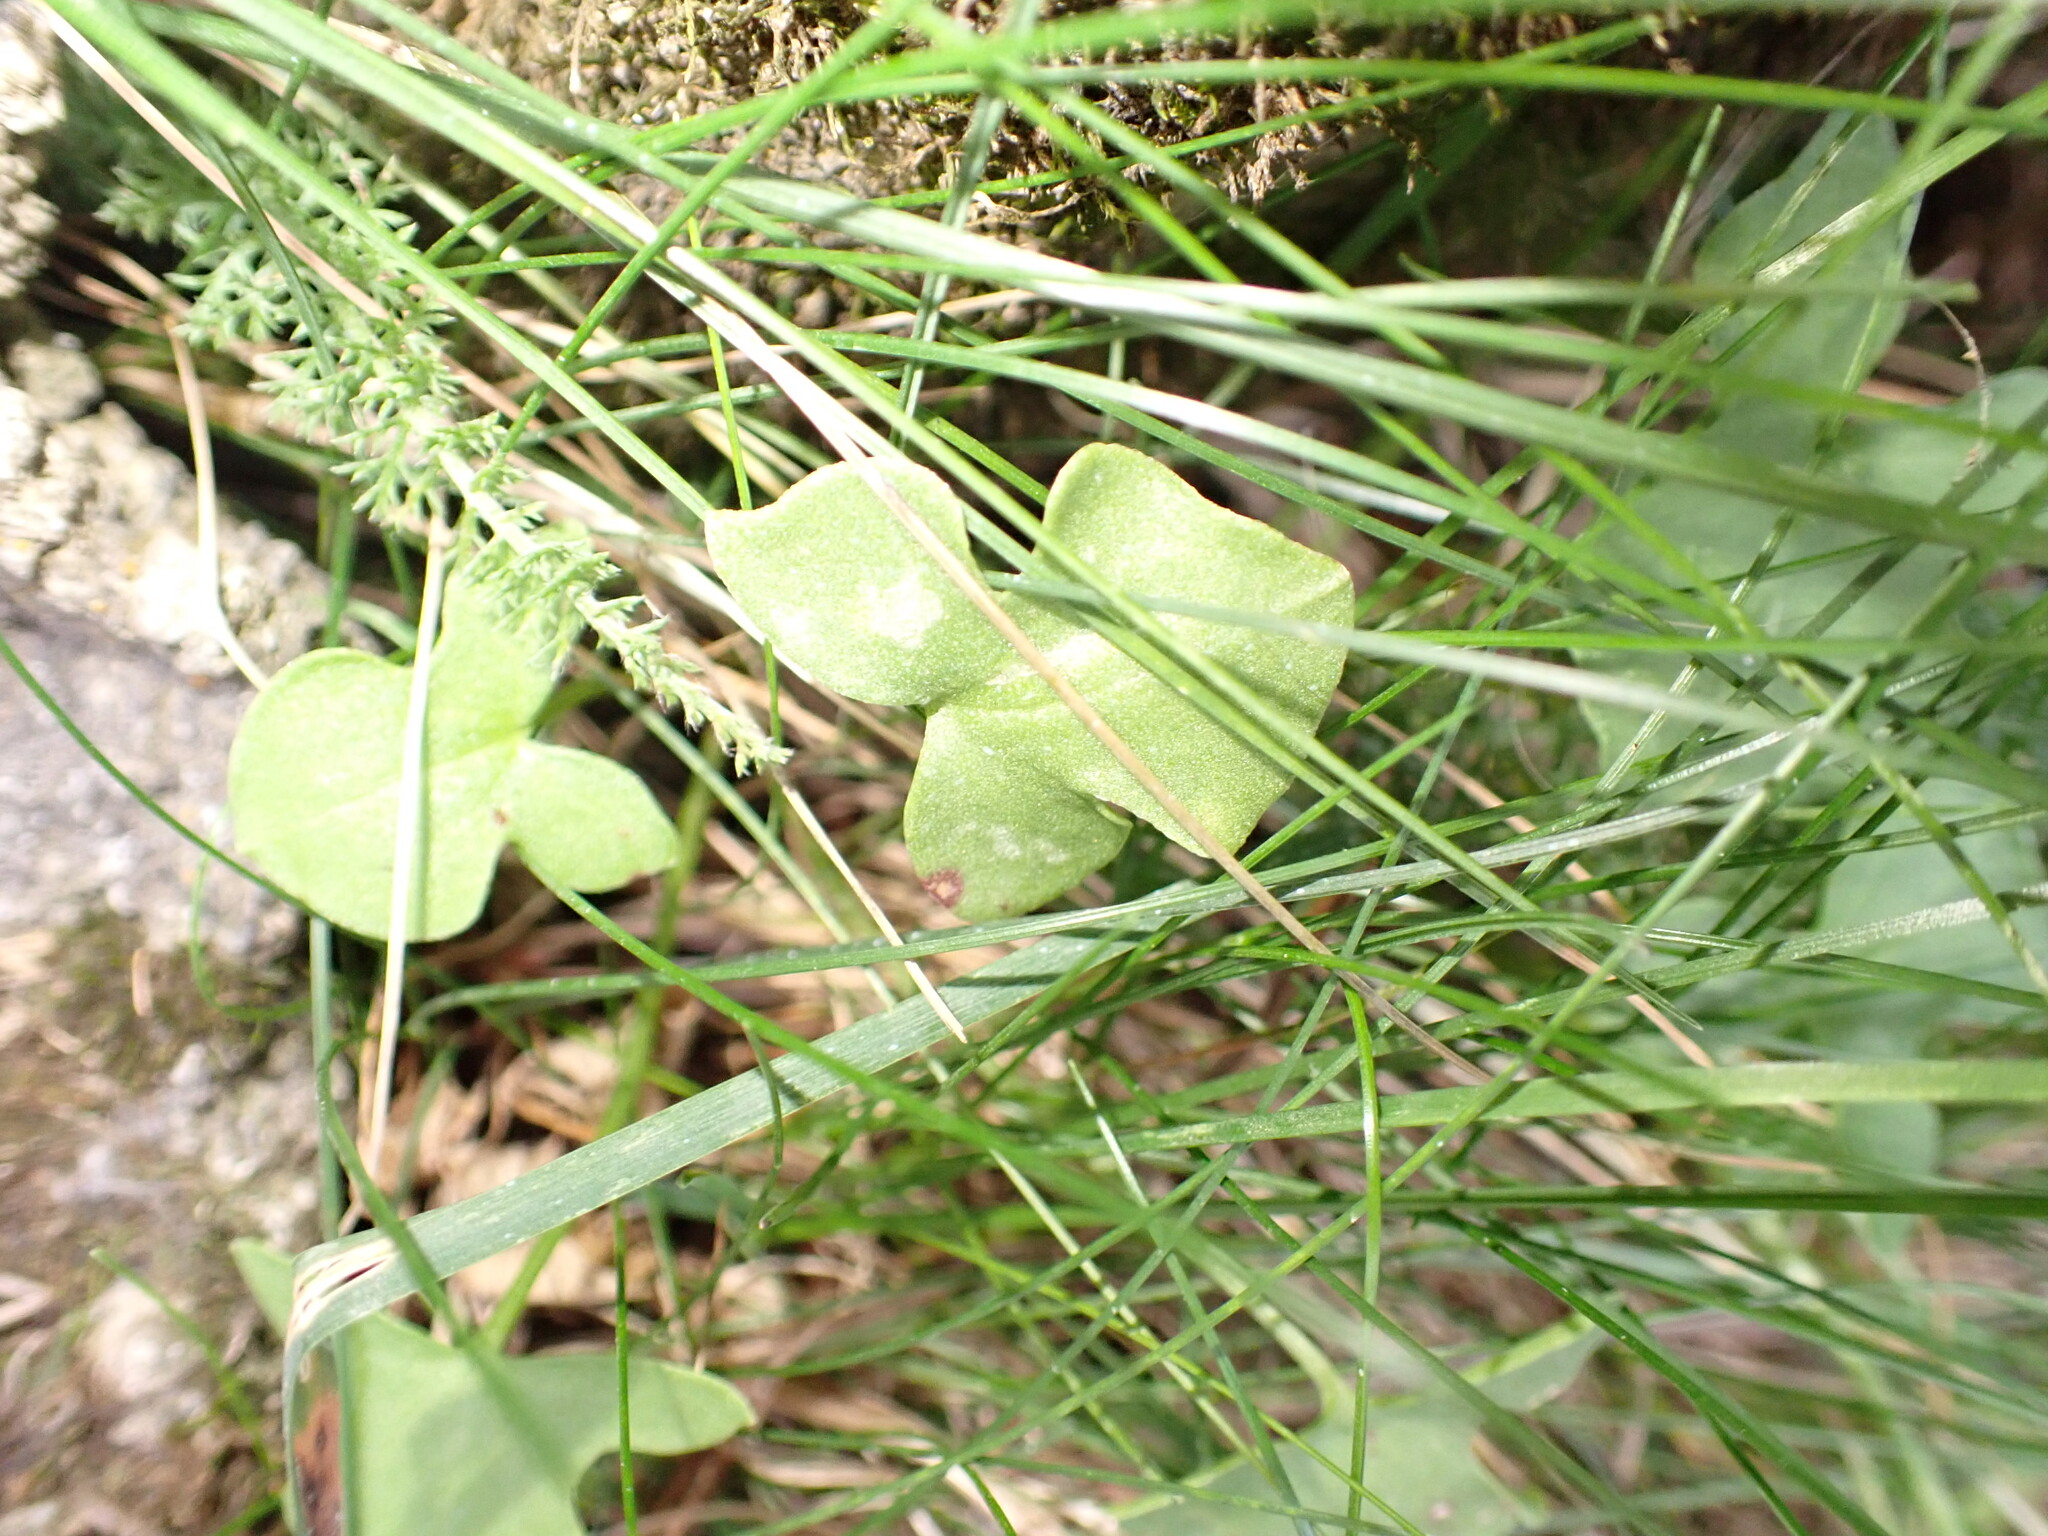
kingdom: Plantae
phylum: Tracheophyta
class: Magnoliopsida
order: Caryophyllales
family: Polygonaceae
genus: Rumex
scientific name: Rumex scutatus
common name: French sorrel
